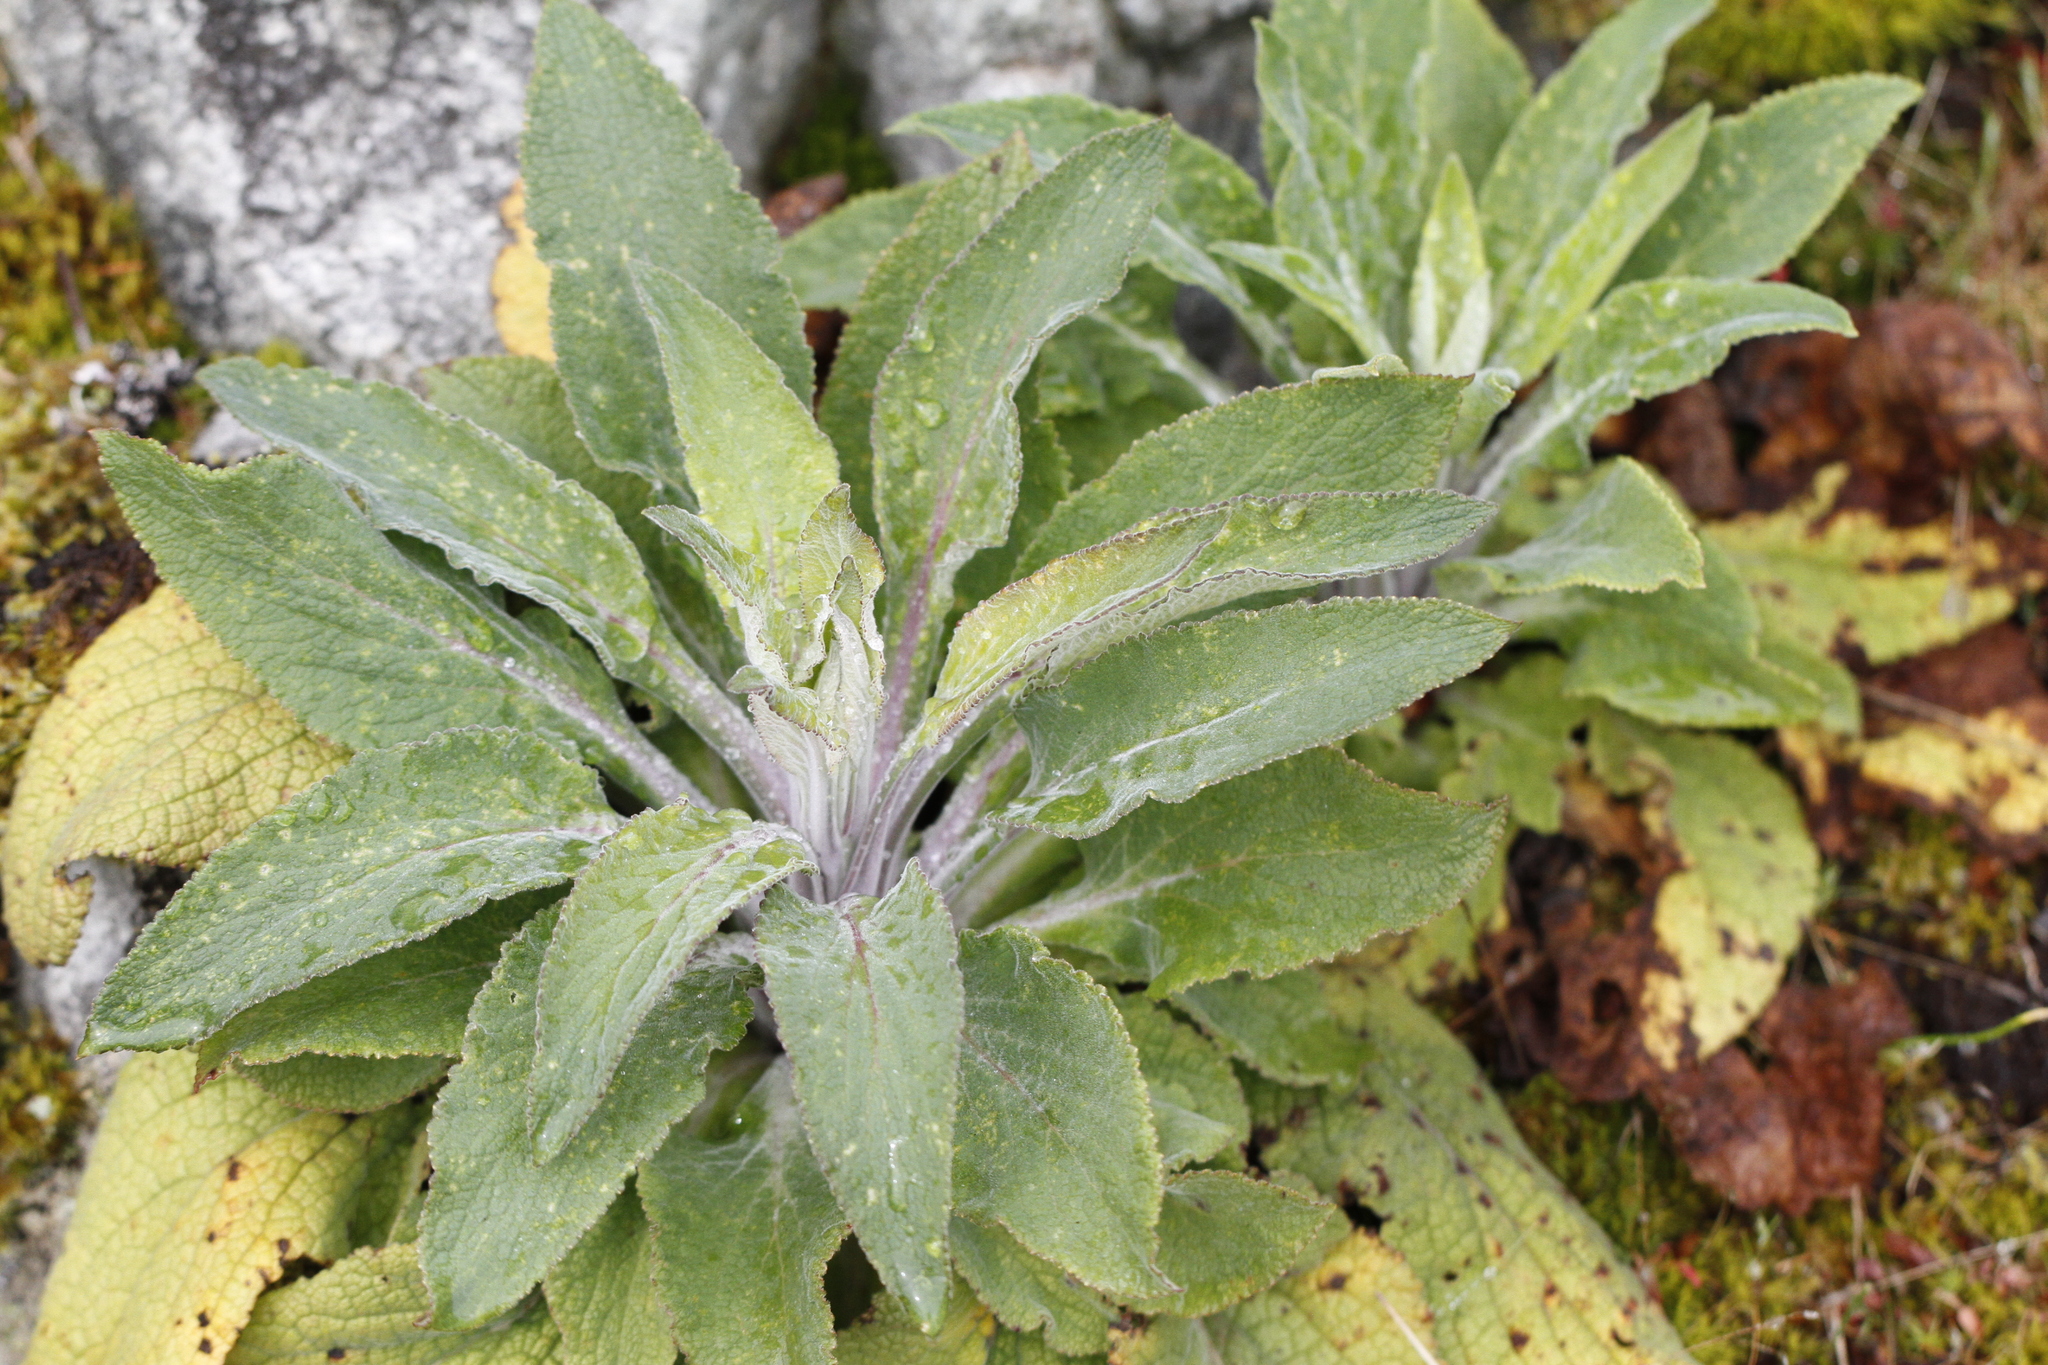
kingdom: Plantae
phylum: Tracheophyta
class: Magnoliopsida
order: Lamiales
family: Plantaginaceae
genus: Digitalis
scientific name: Digitalis purpurea
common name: Foxglove
